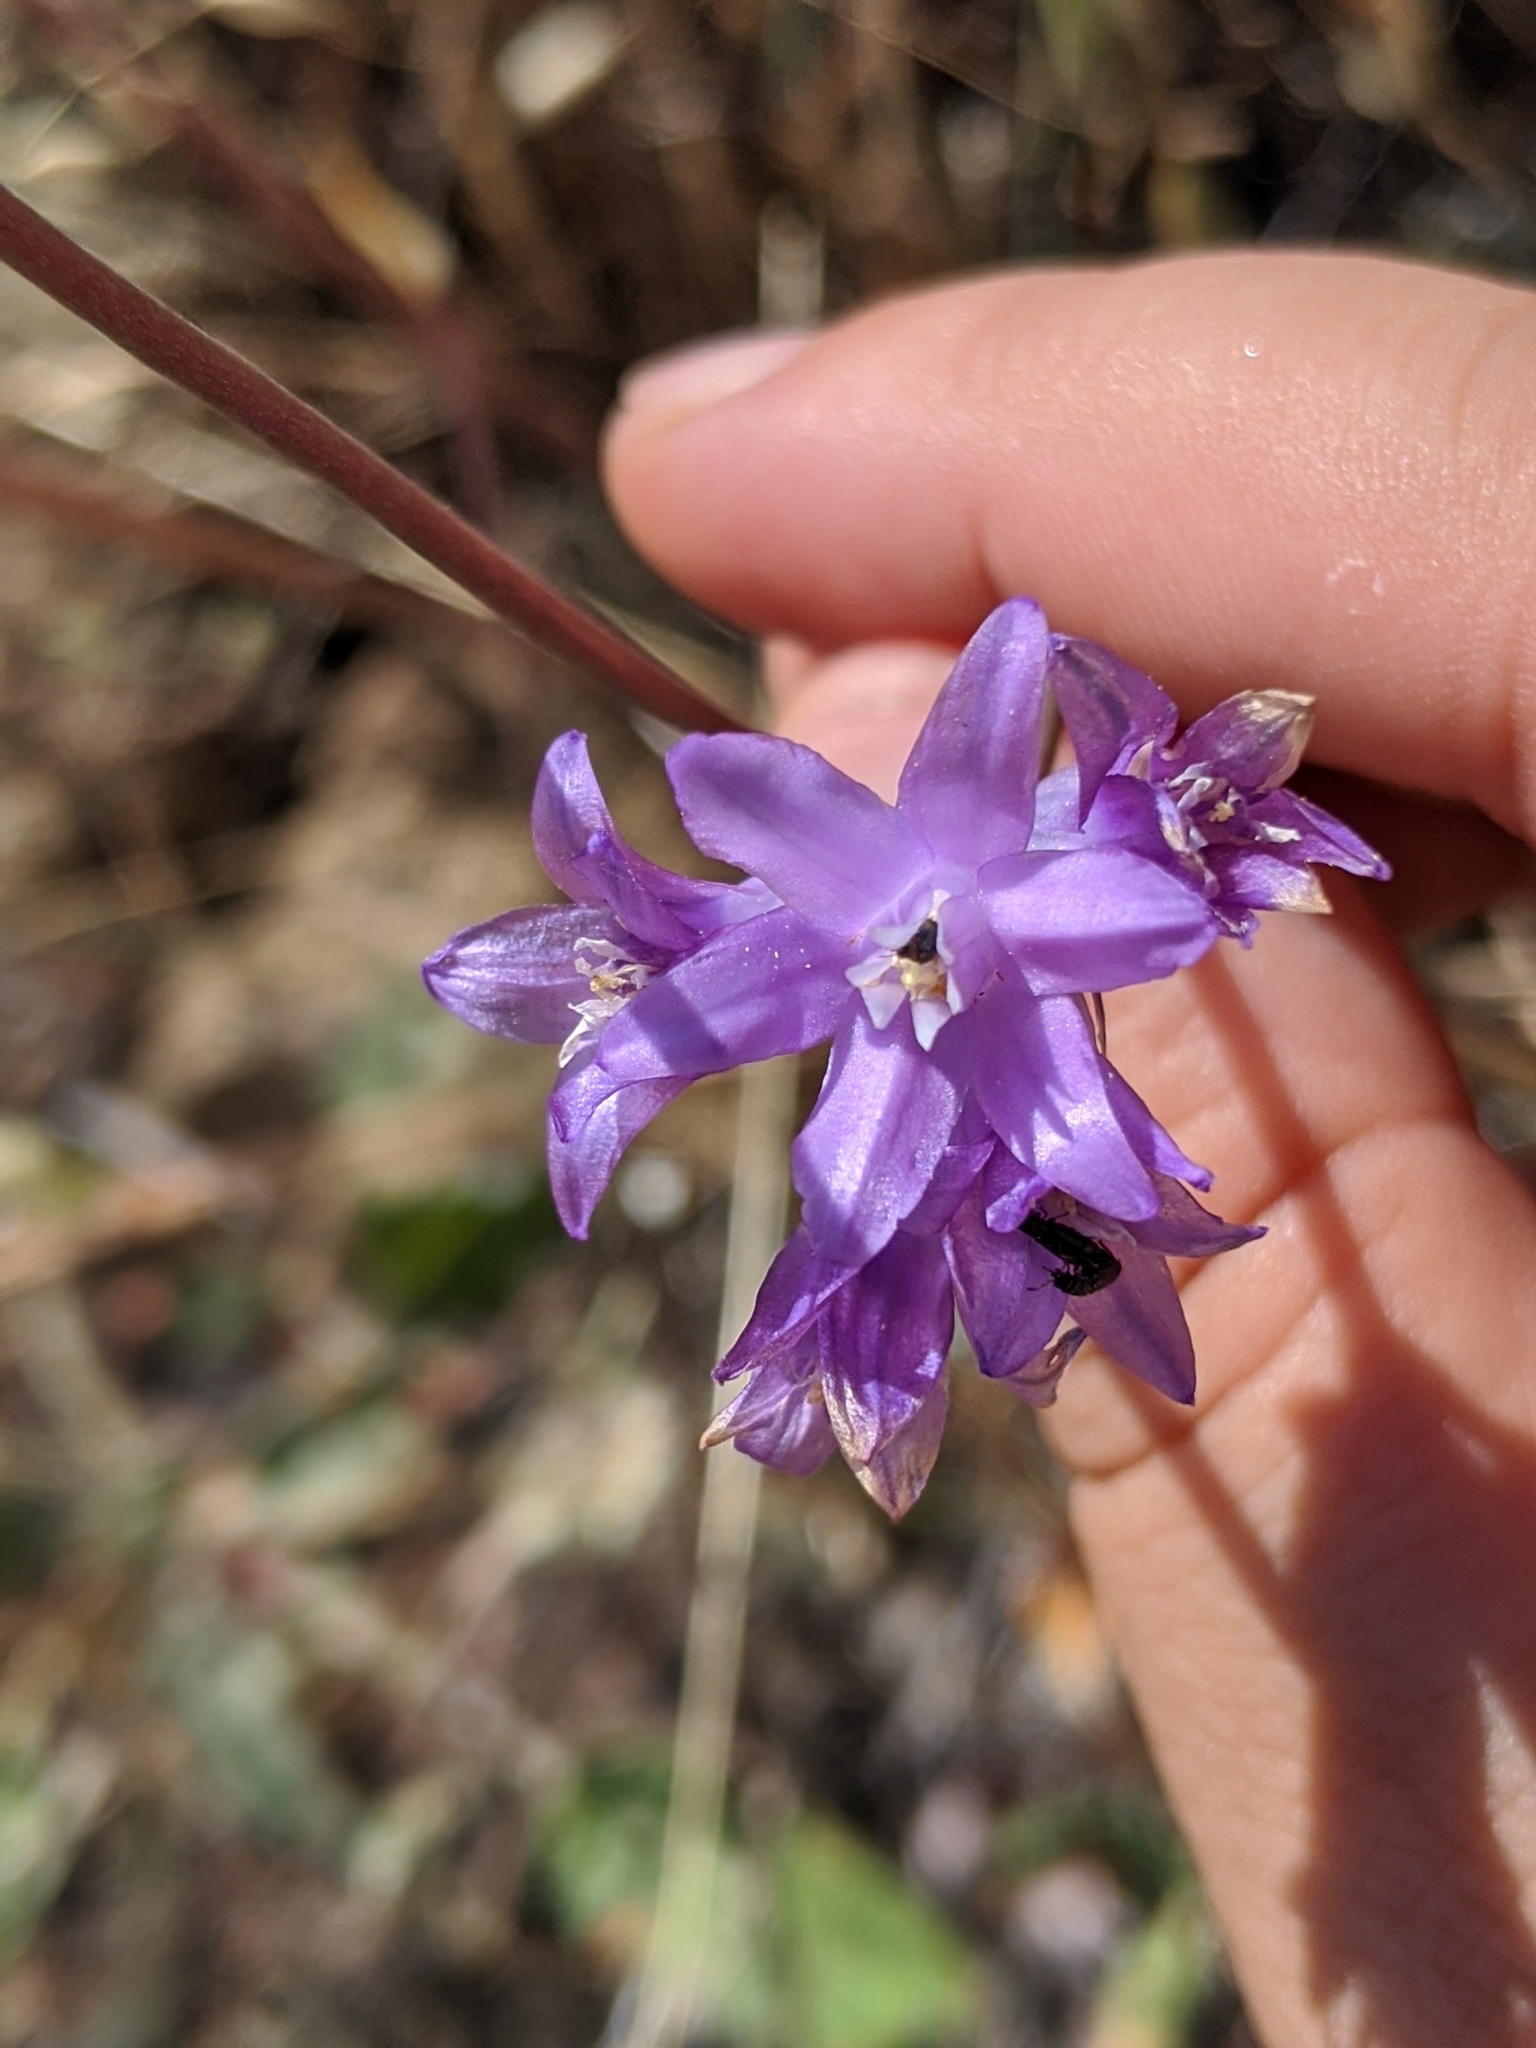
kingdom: Plantae
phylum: Tracheophyta
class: Liliopsida
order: Asparagales
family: Asparagaceae
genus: Dichelostemma
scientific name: Dichelostemma congestum
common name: Fork-tooth ookow
